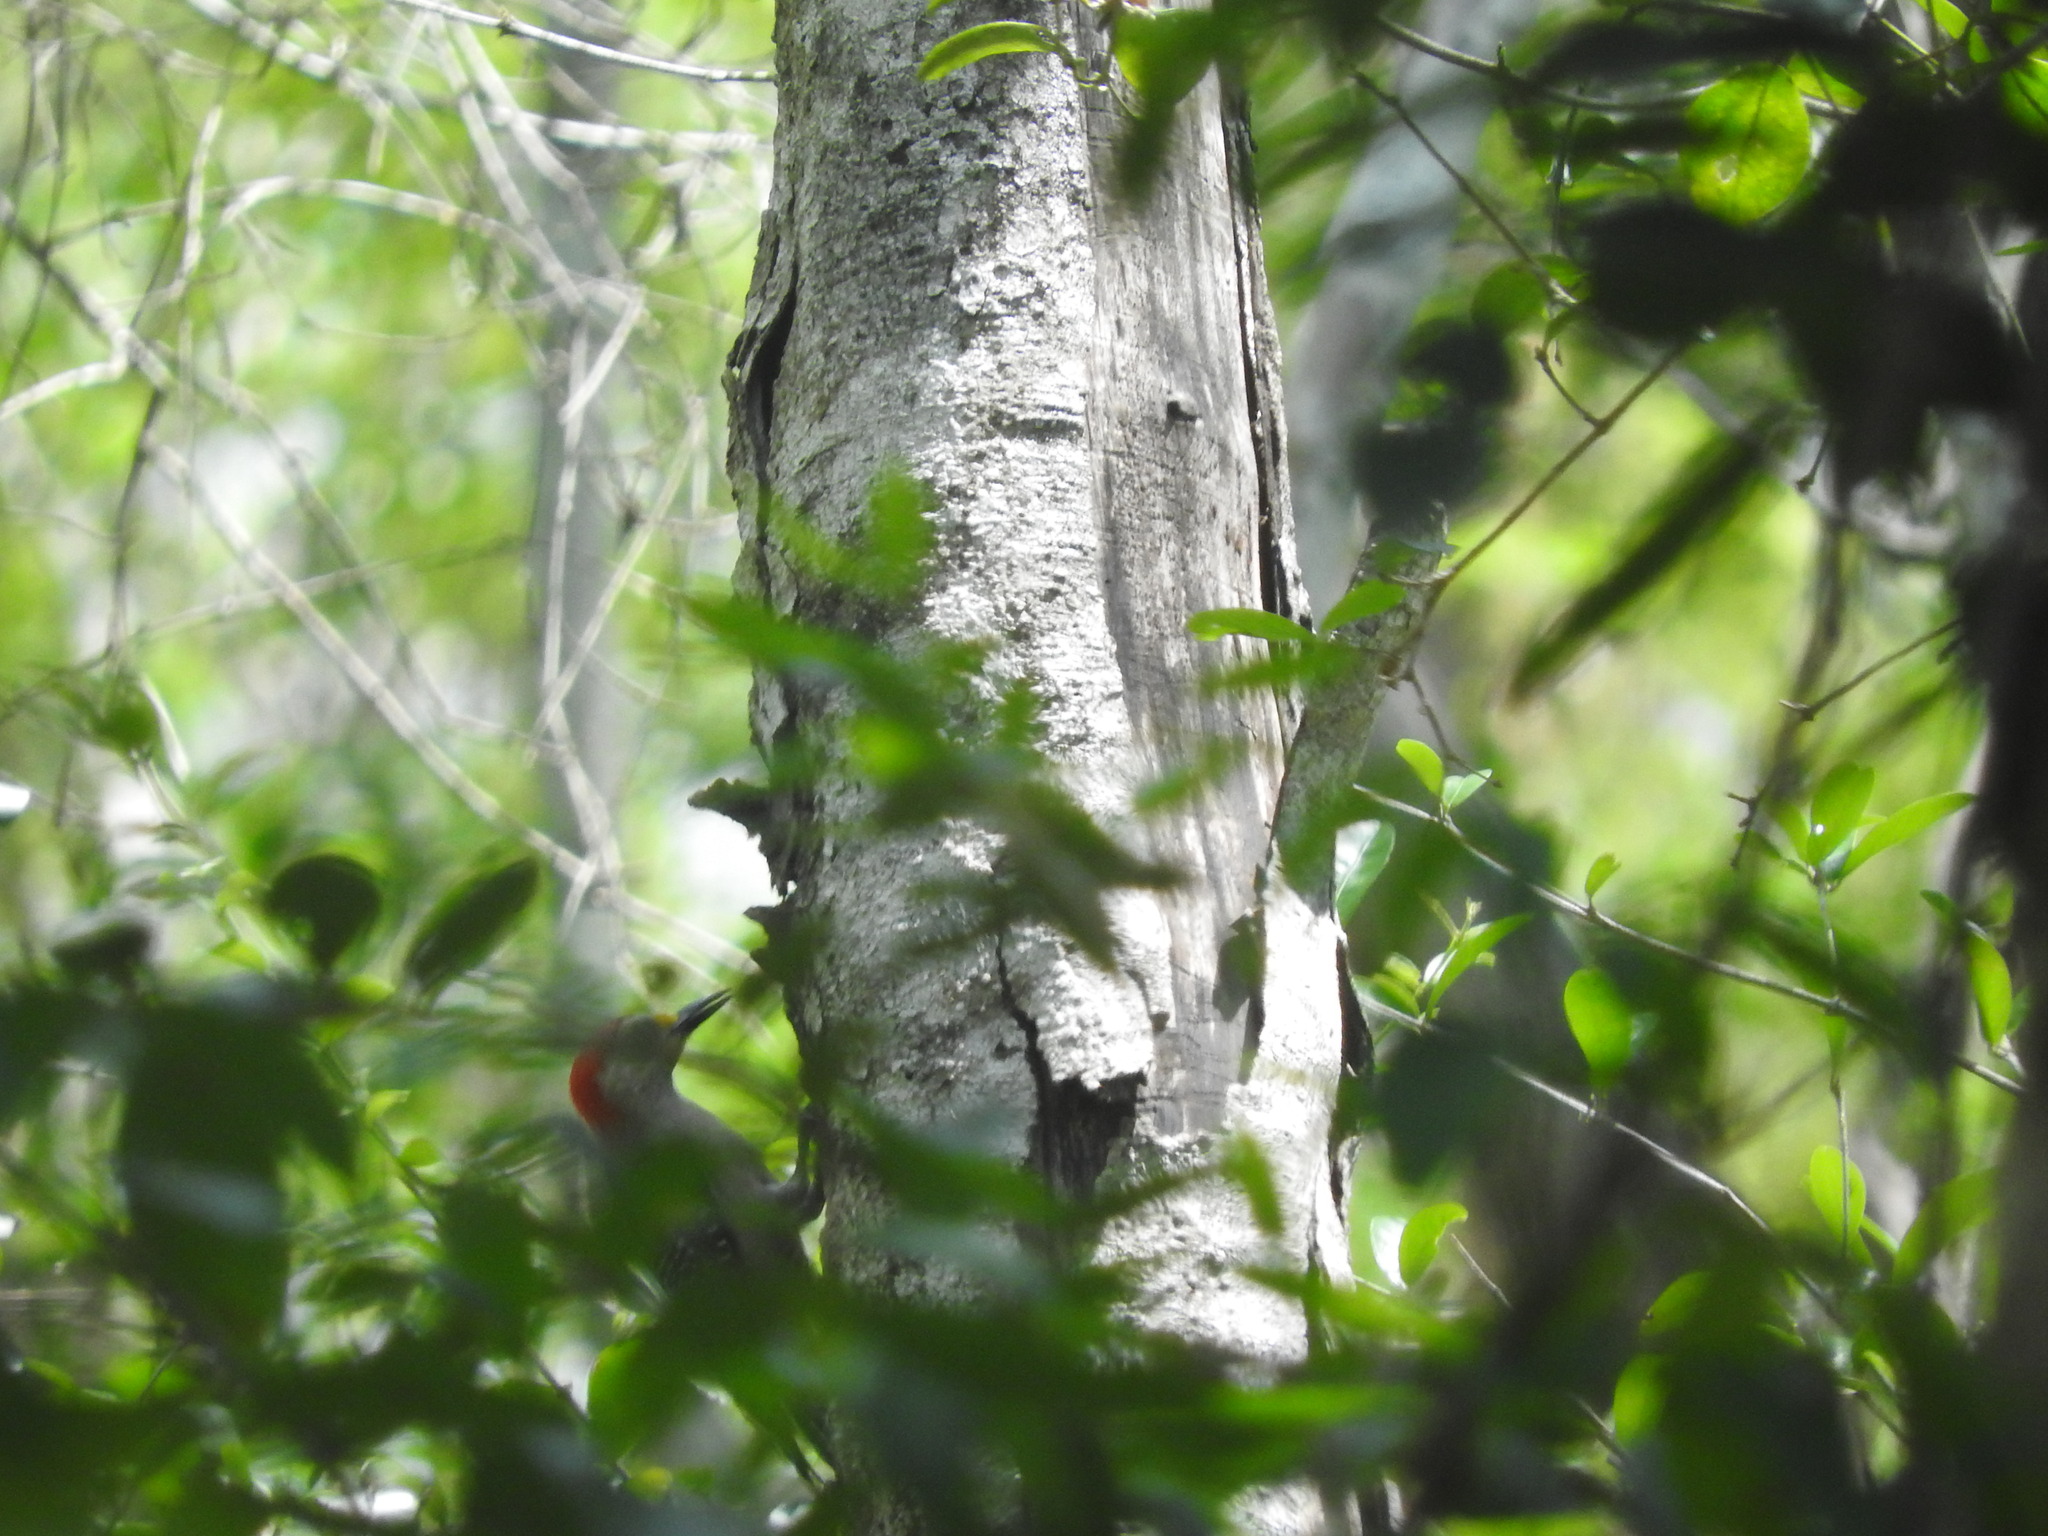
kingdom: Animalia
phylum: Chordata
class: Aves
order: Piciformes
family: Picidae
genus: Melanerpes
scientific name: Melanerpes pygmaeus
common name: Yucatan woodpecker
